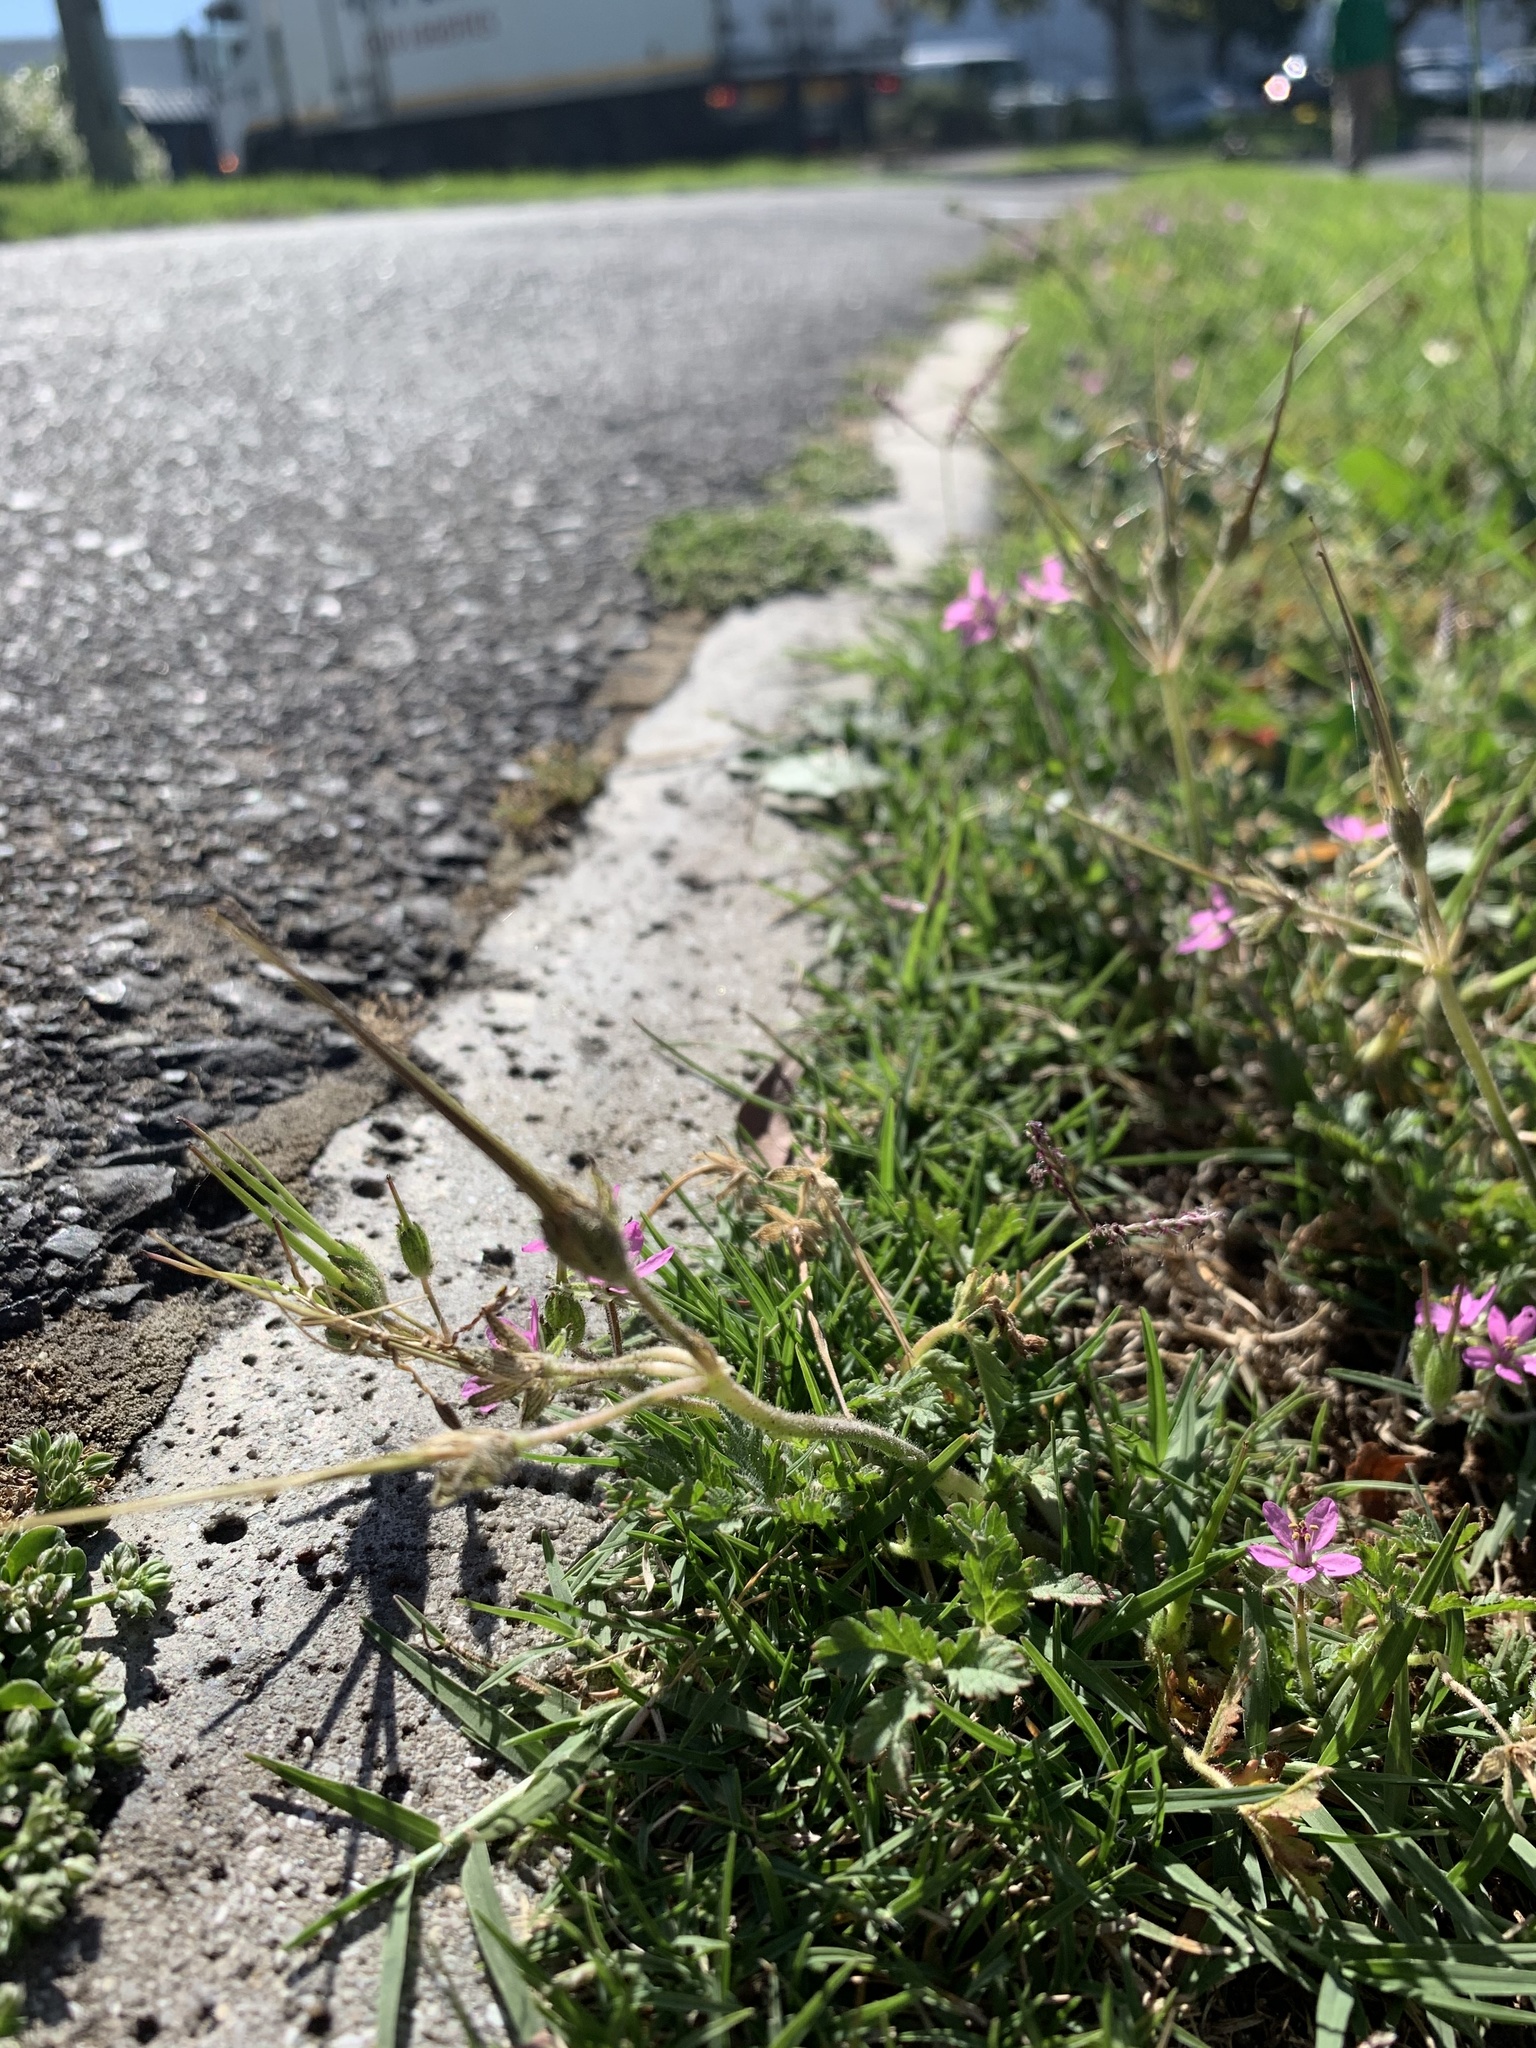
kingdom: Plantae
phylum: Tracheophyta
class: Magnoliopsida
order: Geraniales
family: Geraniaceae
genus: Erodium
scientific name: Erodium moschatum
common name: Musk stork's-bill
